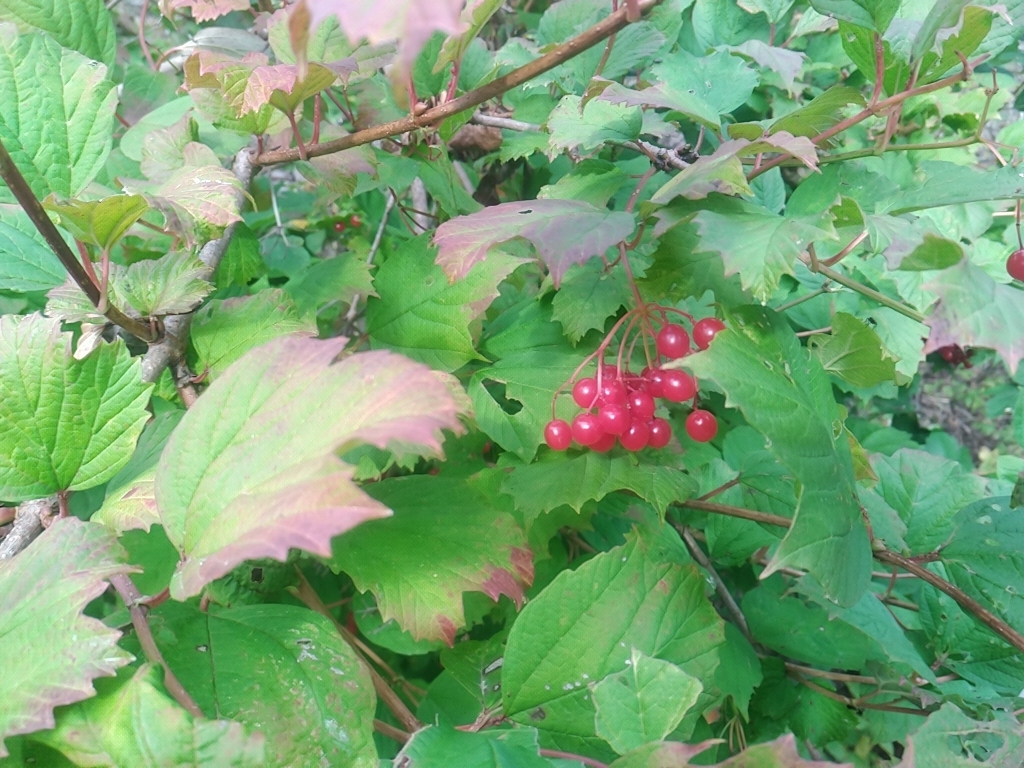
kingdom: Plantae
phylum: Tracheophyta
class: Magnoliopsida
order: Dipsacales
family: Viburnaceae
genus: Viburnum
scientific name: Viburnum opulus
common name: Guelder-rose
